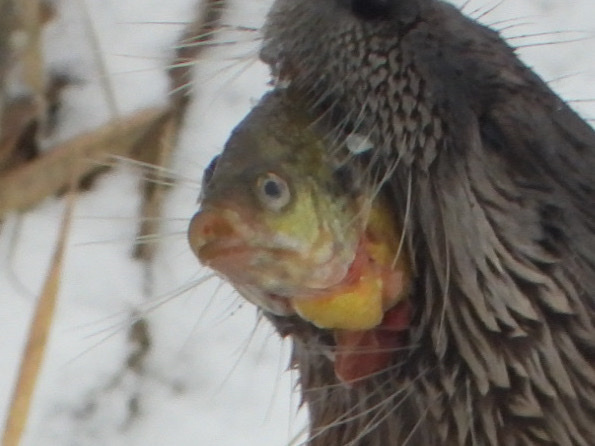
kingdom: Animalia
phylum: Chordata
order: Perciformes
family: Centrarchidae
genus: Lepomis
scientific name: Lepomis macrochirus
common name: Bluegill
